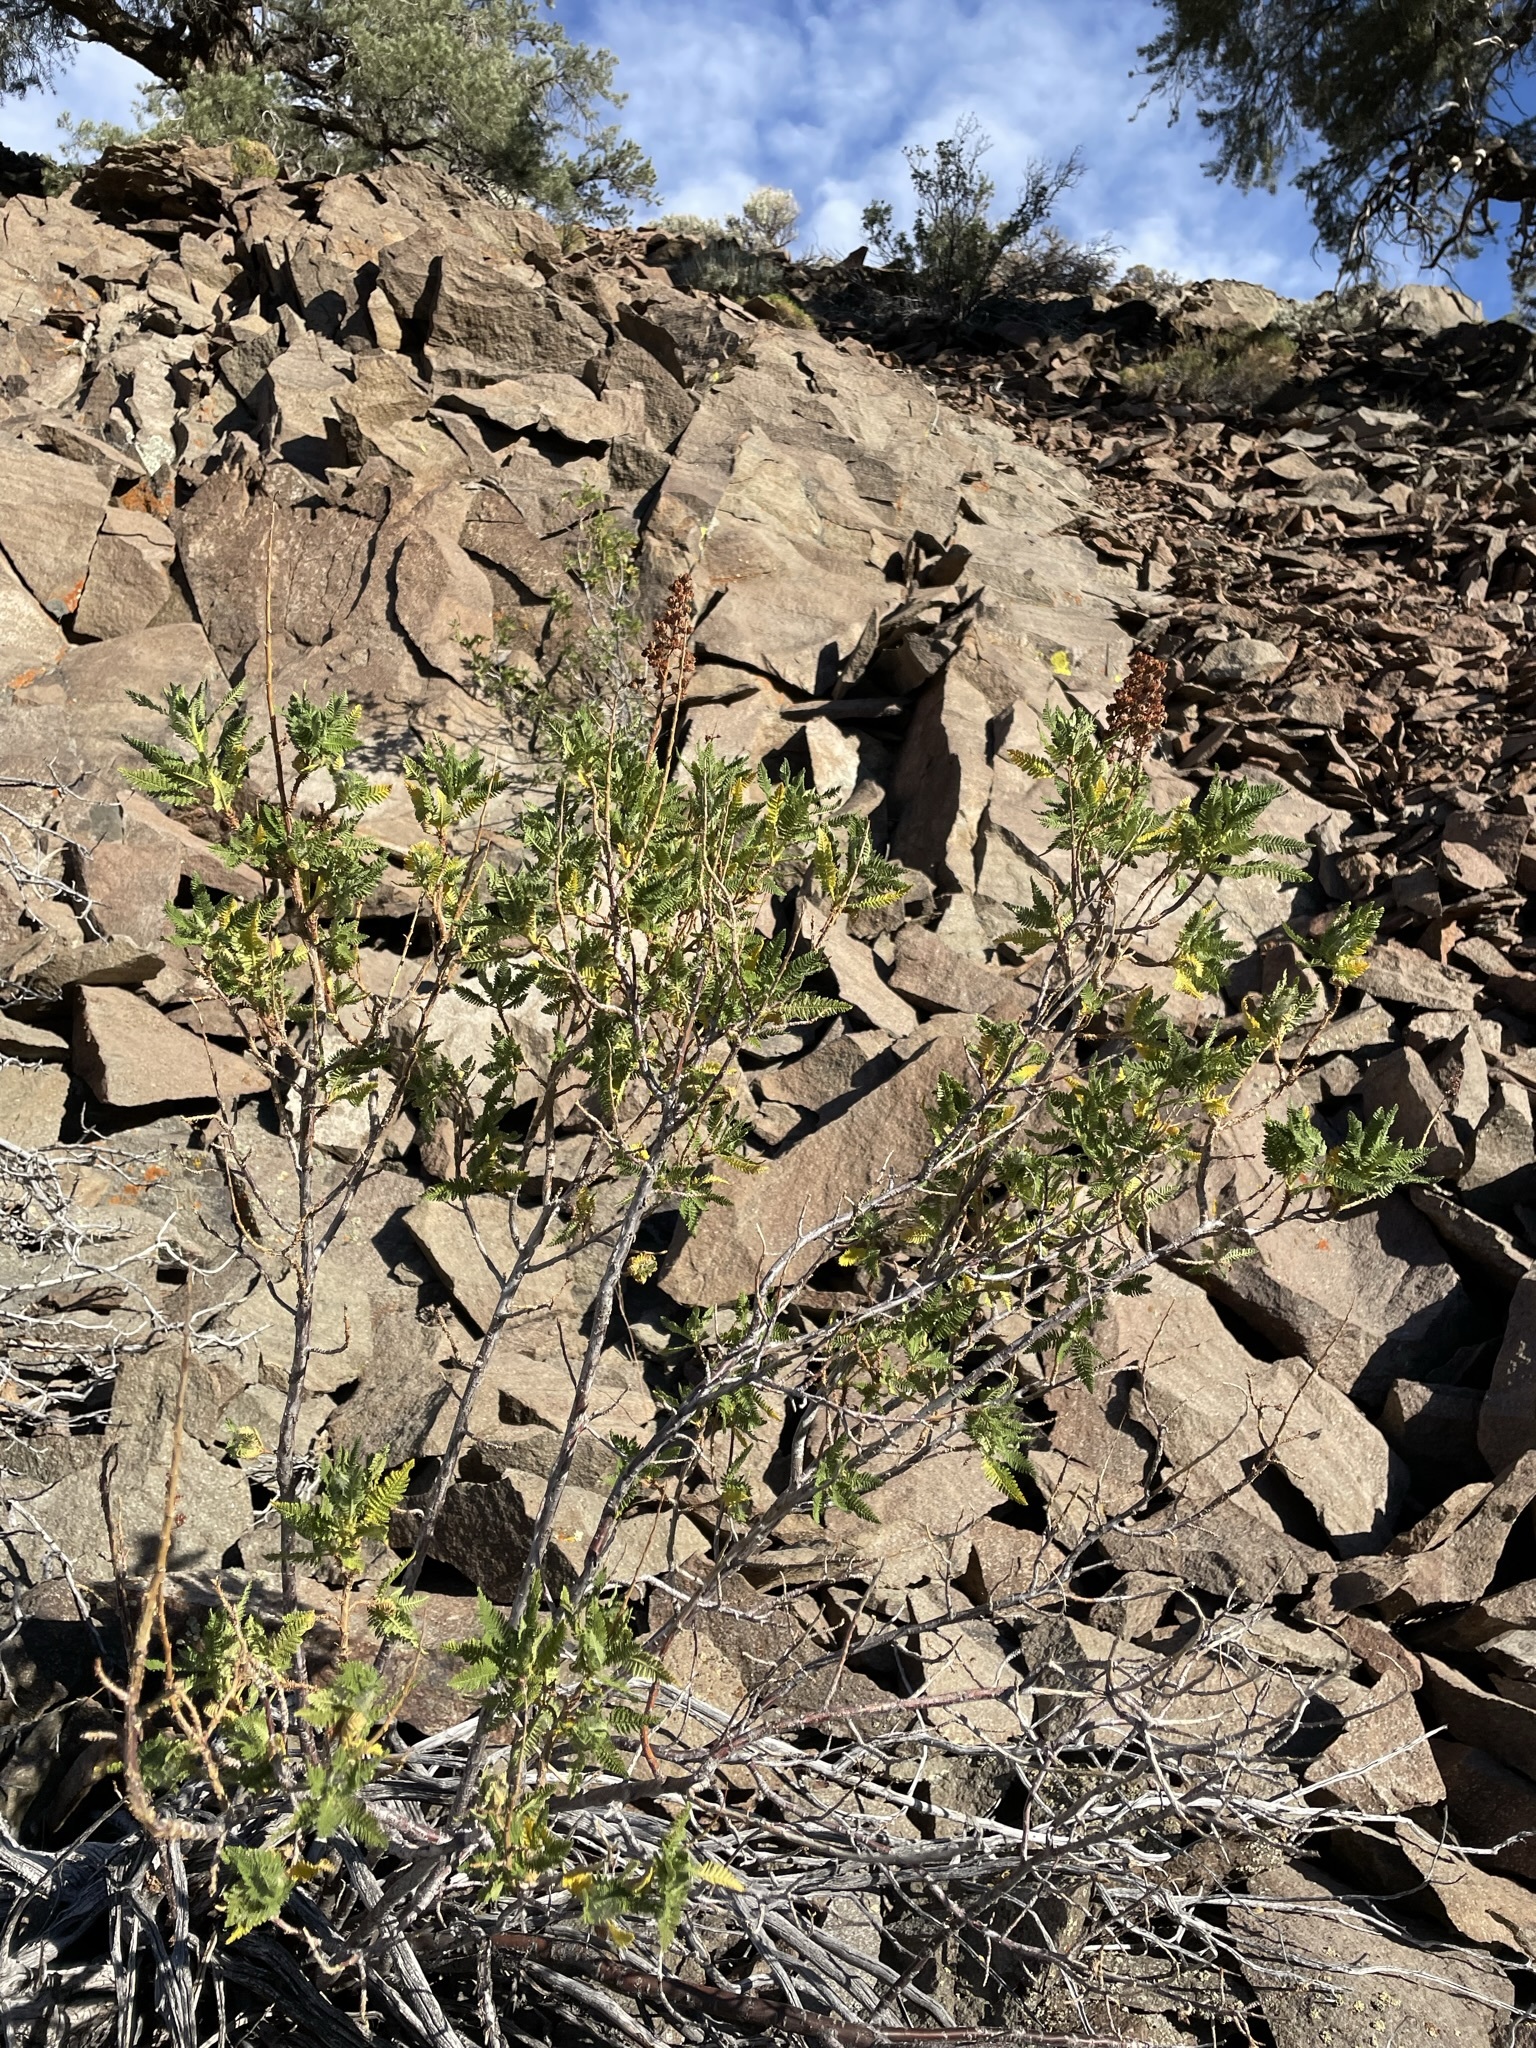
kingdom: Plantae
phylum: Tracheophyta
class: Magnoliopsida
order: Rosales
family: Rosaceae
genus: Chamaebatiaria
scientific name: Chamaebatiaria millefolium
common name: Fernbush
